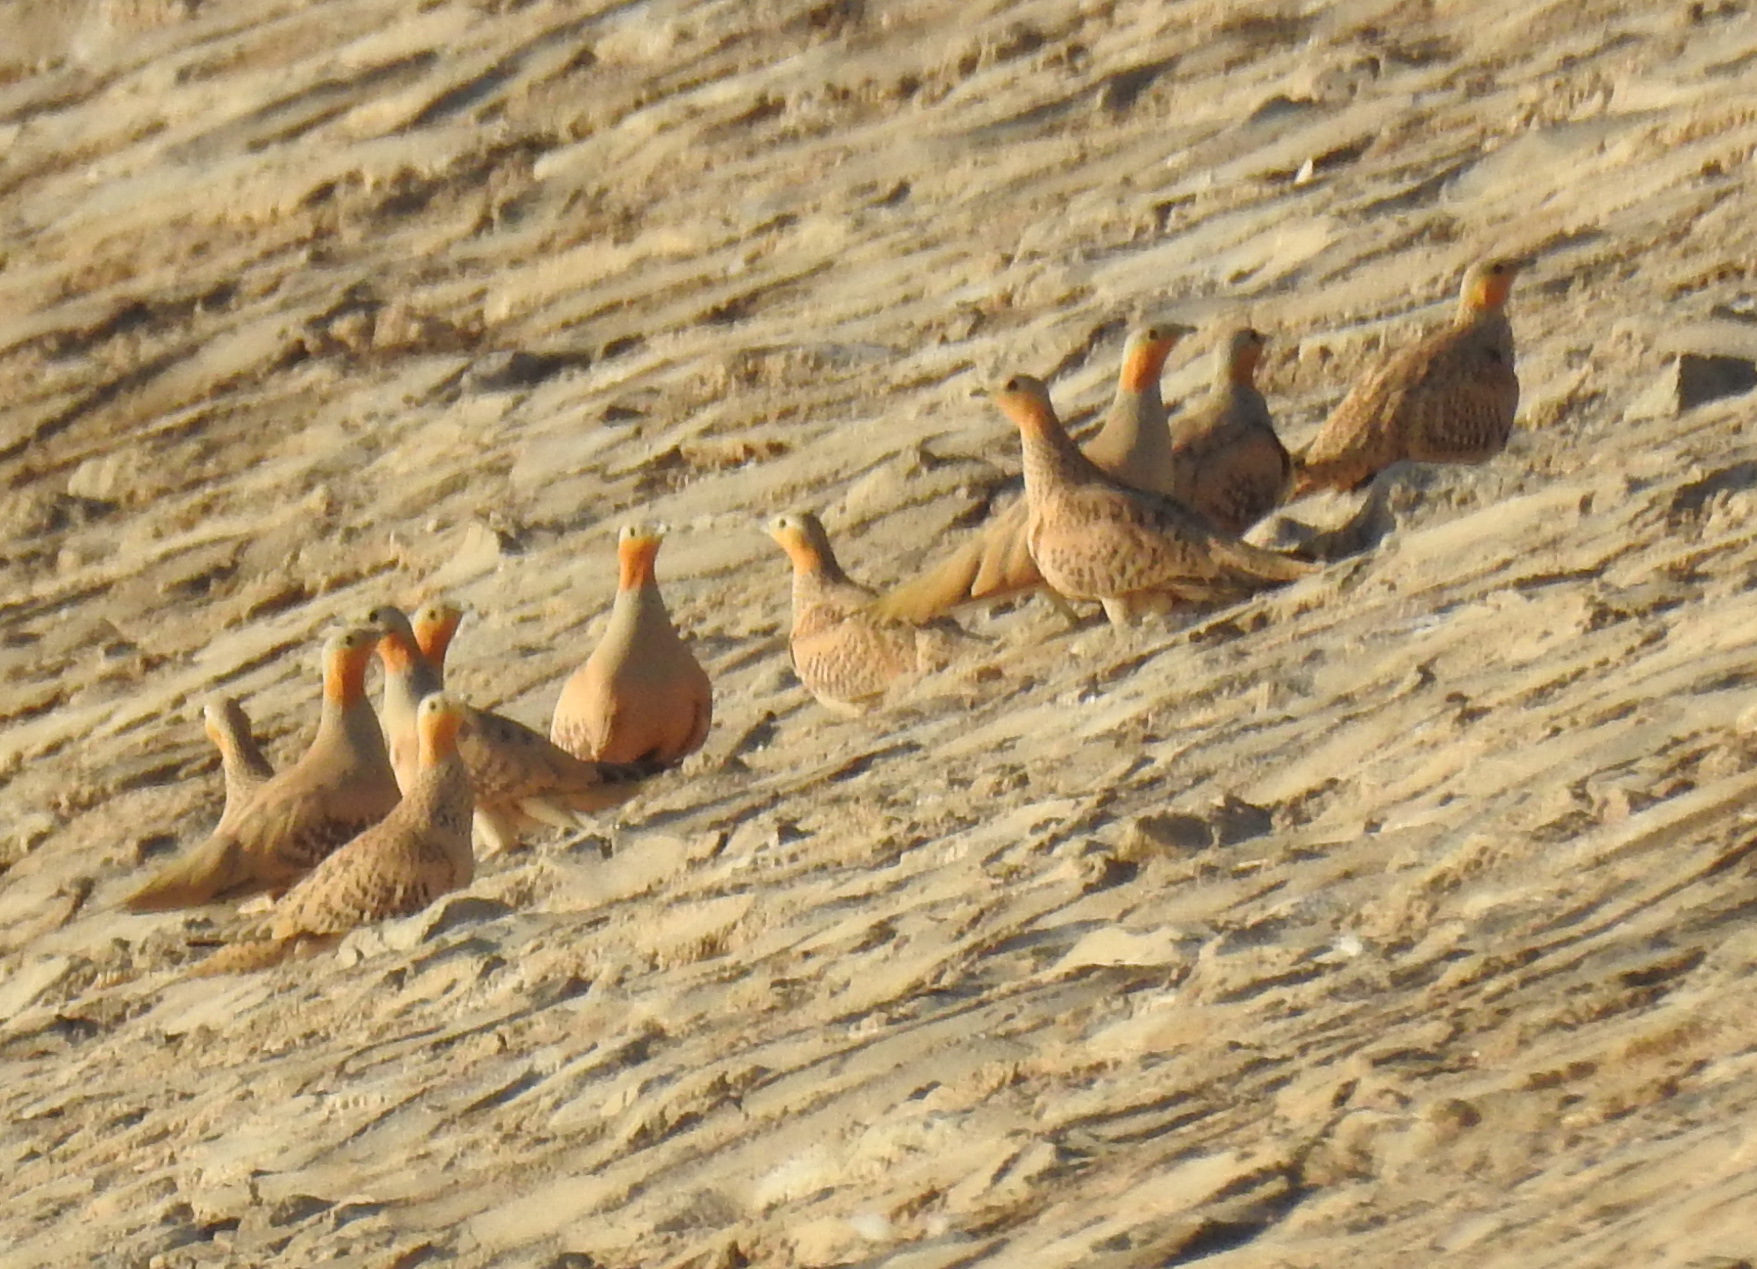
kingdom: Animalia
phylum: Chordata
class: Aves
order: Pteroclidiformes
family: Pteroclididae
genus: Pterocles
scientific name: Pterocles senegallus
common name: Spotted sandgrouse
